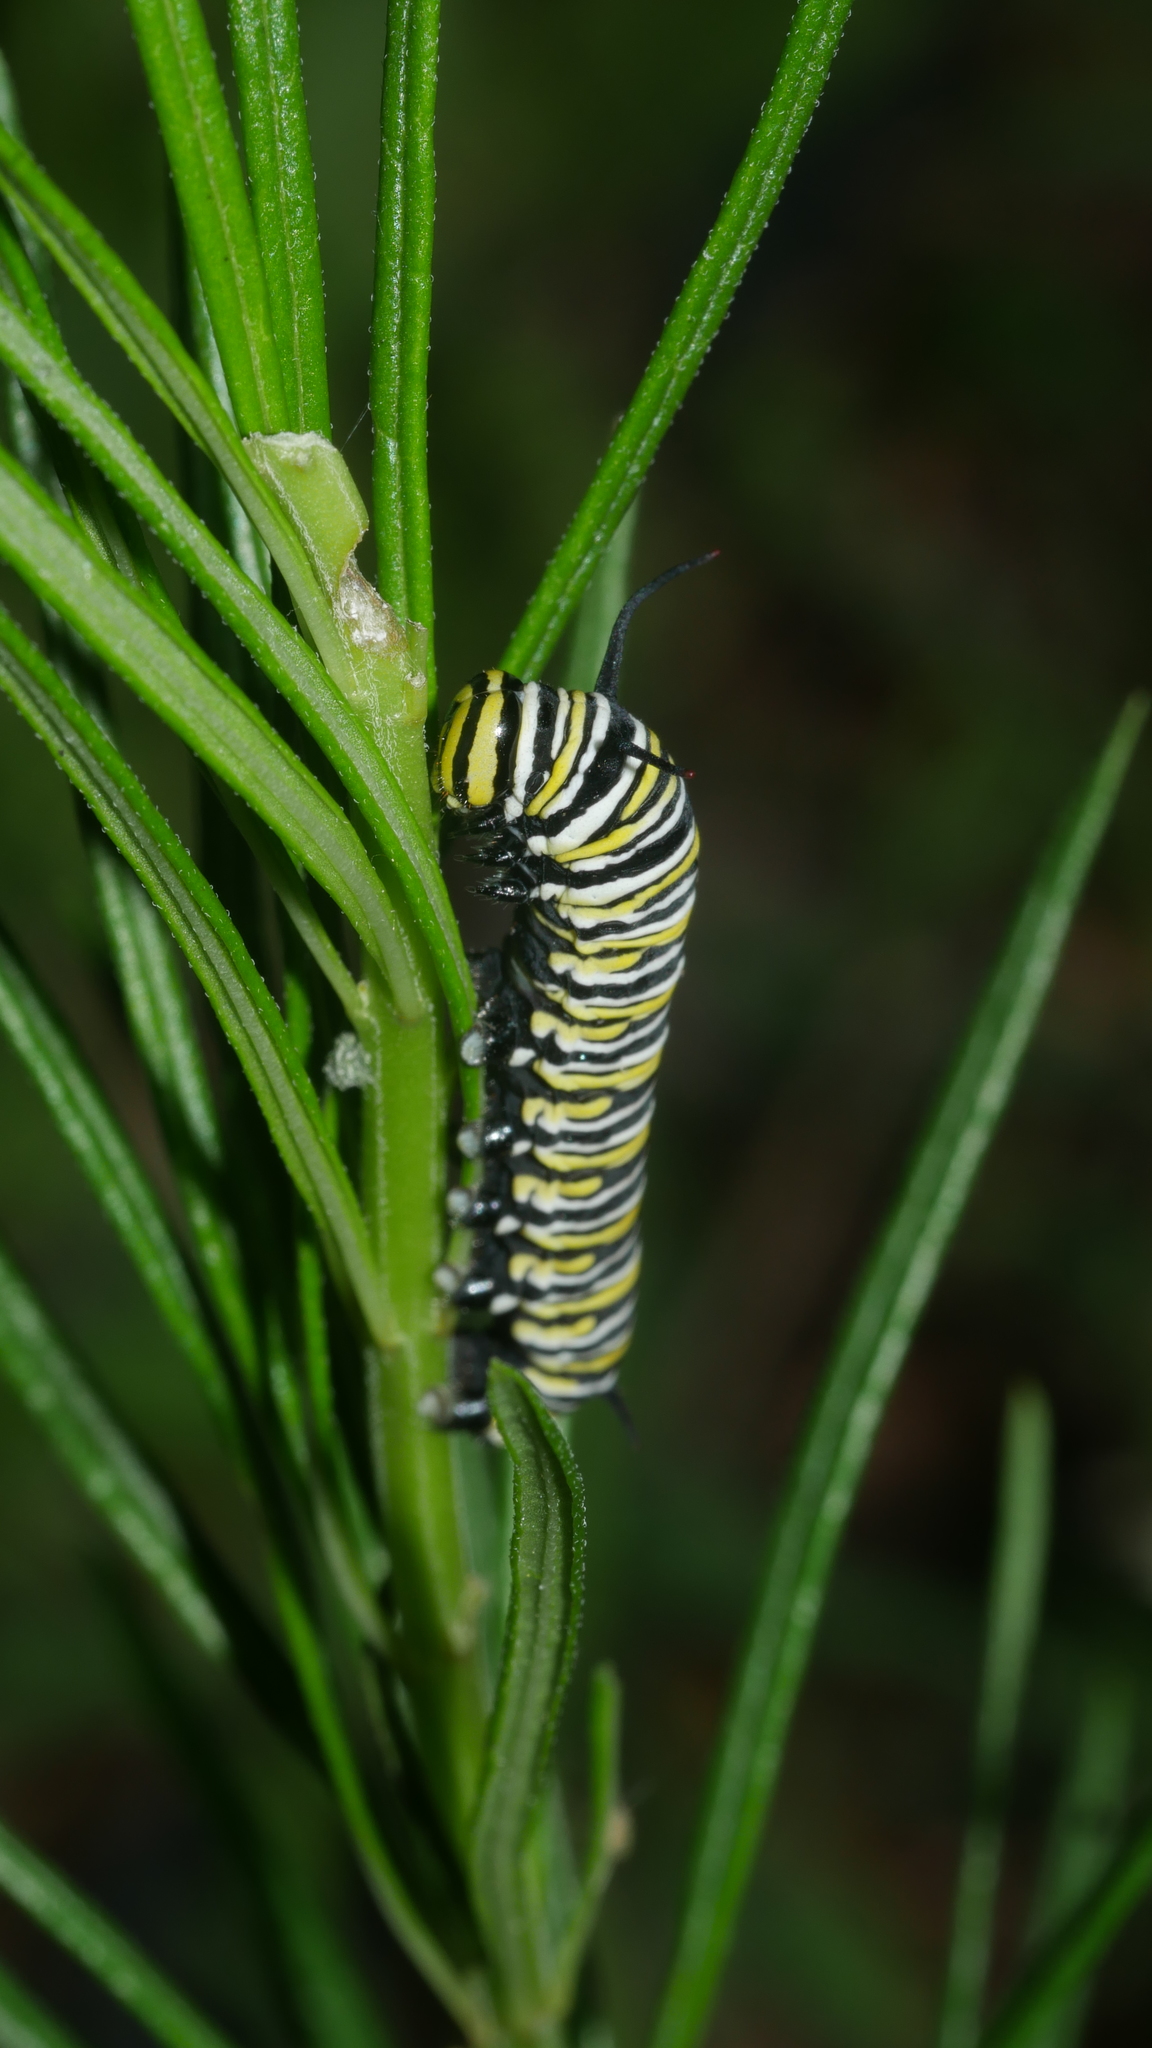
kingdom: Animalia
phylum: Arthropoda
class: Insecta
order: Lepidoptera
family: Nymphalidae
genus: Danaus
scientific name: Danaus plexippus
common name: Monarch
